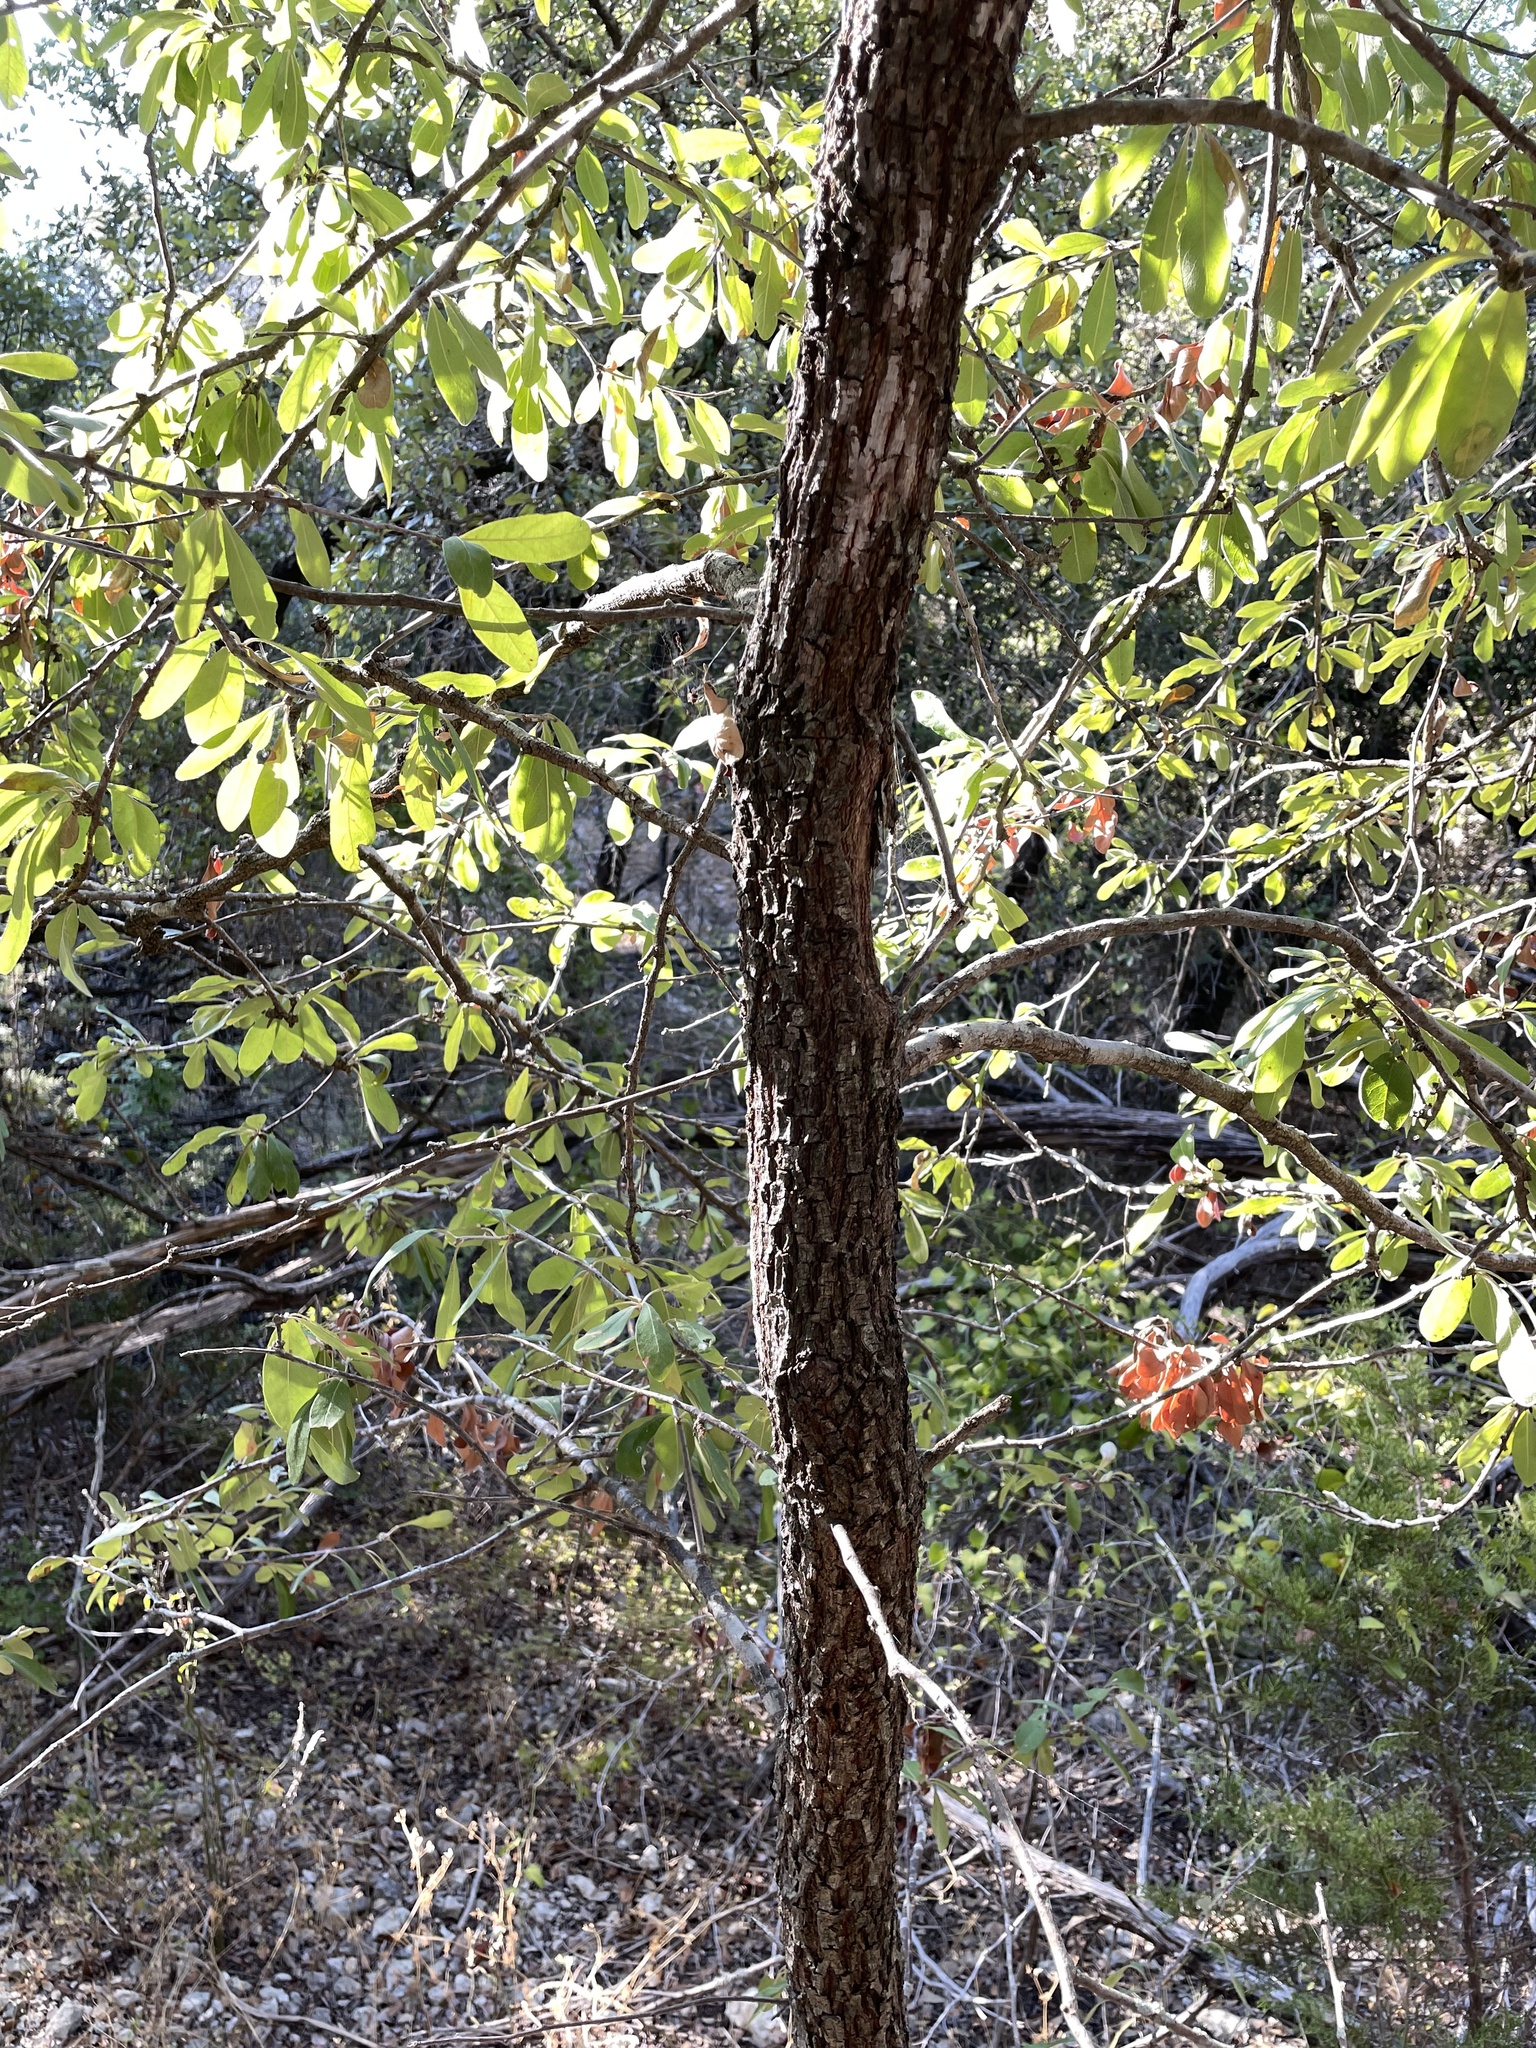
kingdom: Plantae
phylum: Tracheophyta
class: Magnoliopsida
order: Ericales
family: Sapotaceae
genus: Sideroxylon
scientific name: Sideroxylon lanuginosum
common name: Chittamwood
